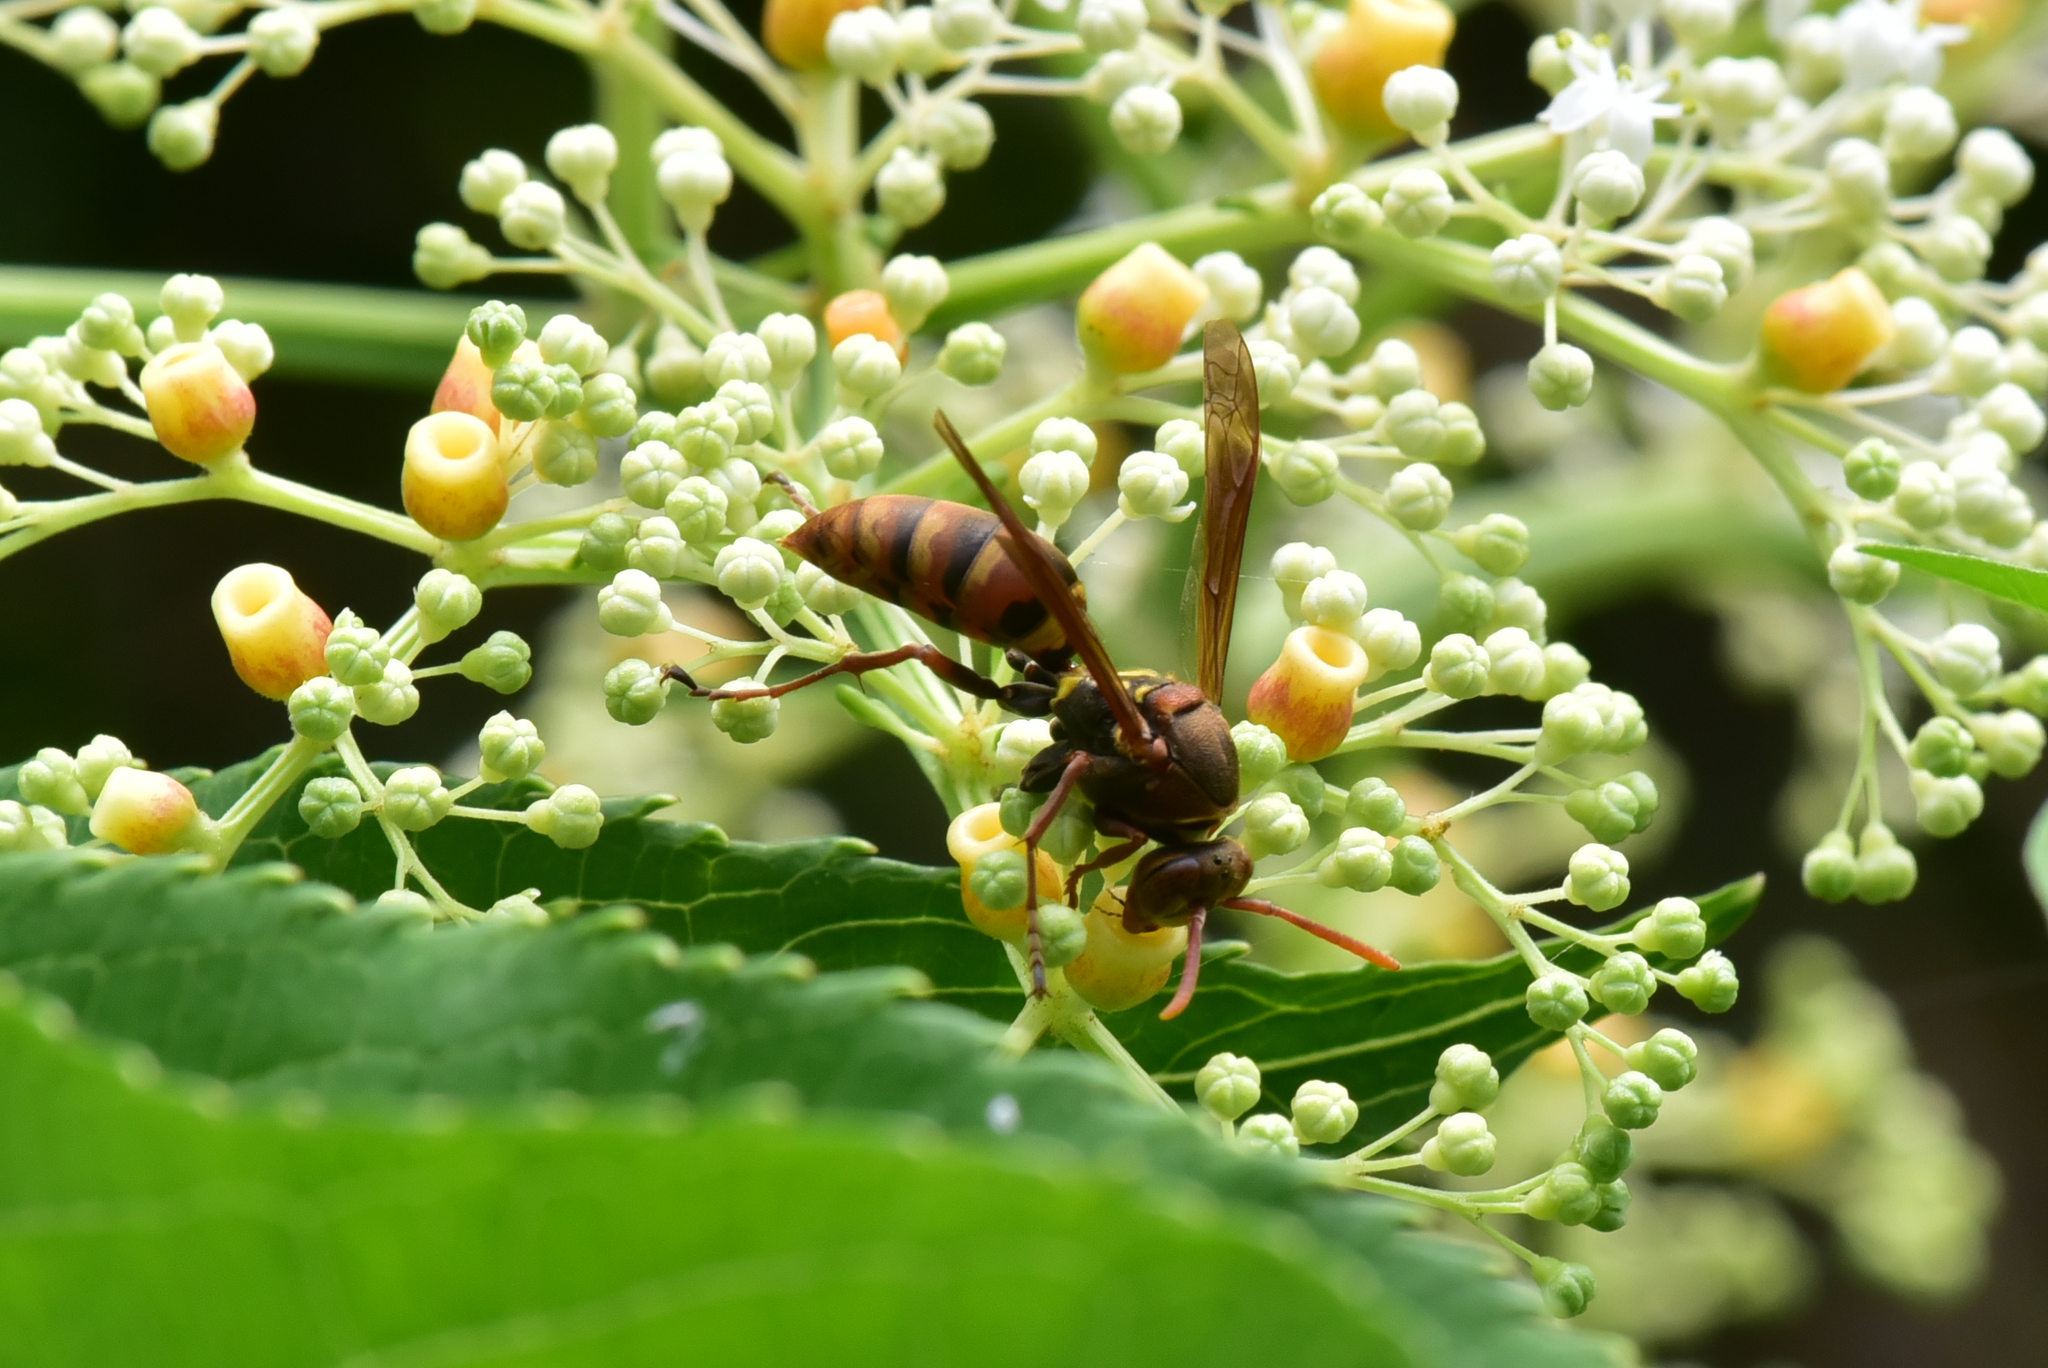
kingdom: Animalia
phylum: Arthropoda
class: Insecta
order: Hymenoptera
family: Eumenidae
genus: Polistes
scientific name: Polistes takasagonus
